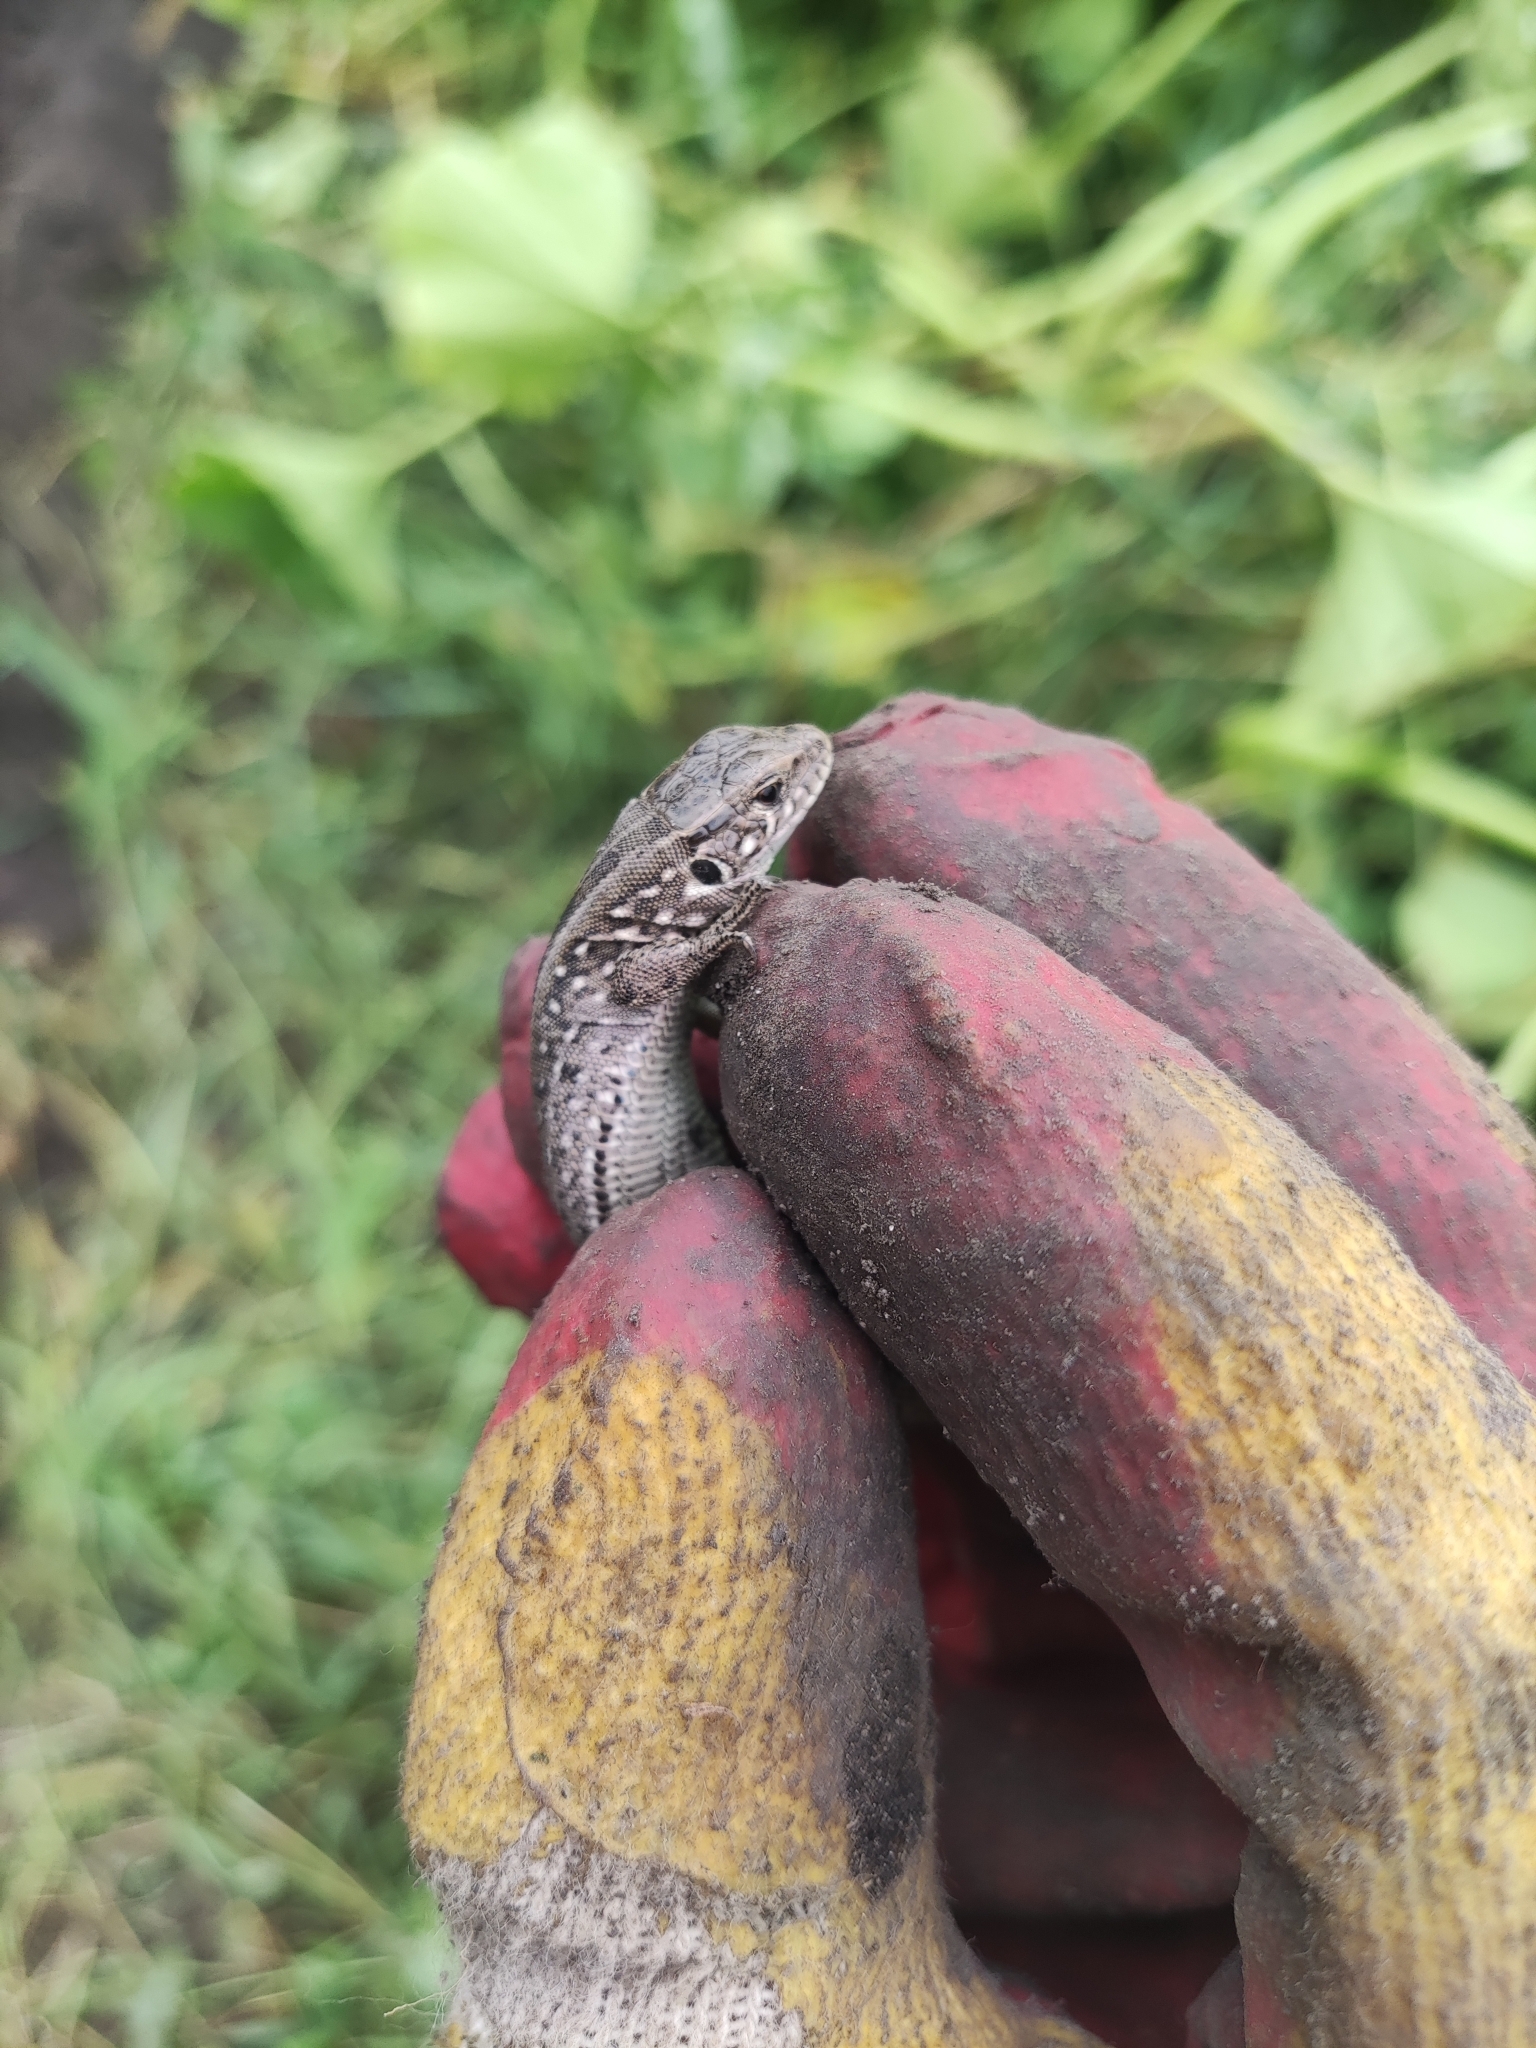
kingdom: Animalia
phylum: Chordata
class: Squamata
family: Lacertidae
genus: Lacerta
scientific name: Lacerta agilis
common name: Sand lizard
